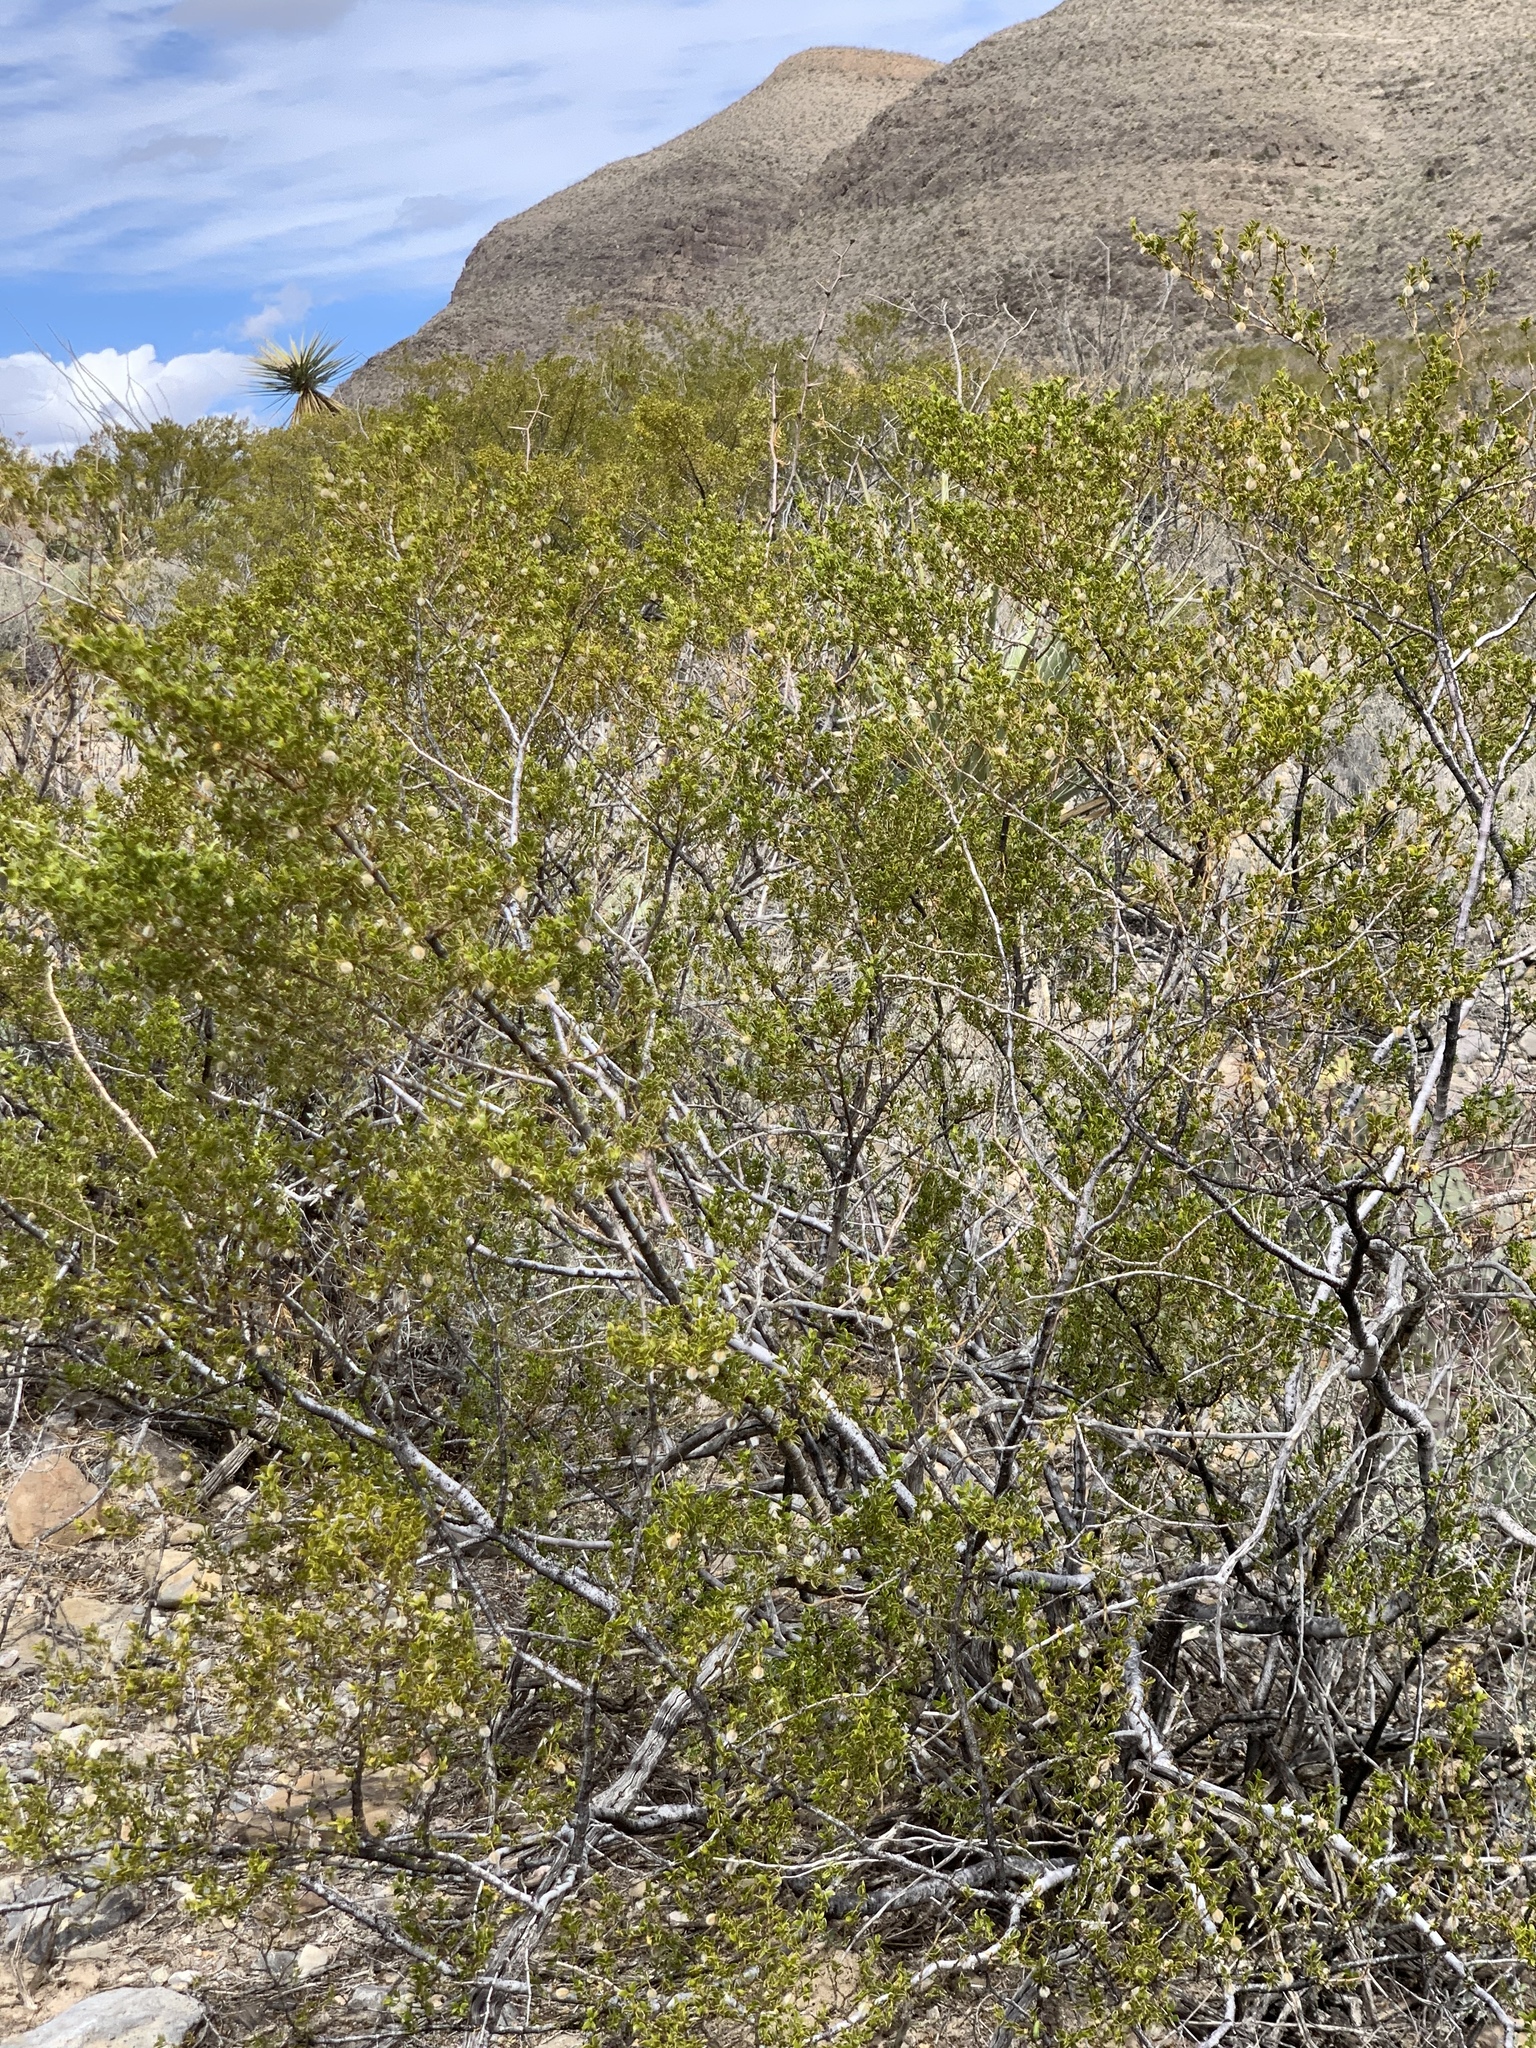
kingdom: Plantae
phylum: Tracheophyta
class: Magnoliopsida
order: Zygophyllales
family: Zygophyllaceae
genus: Larrea
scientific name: Larrea tridentata
